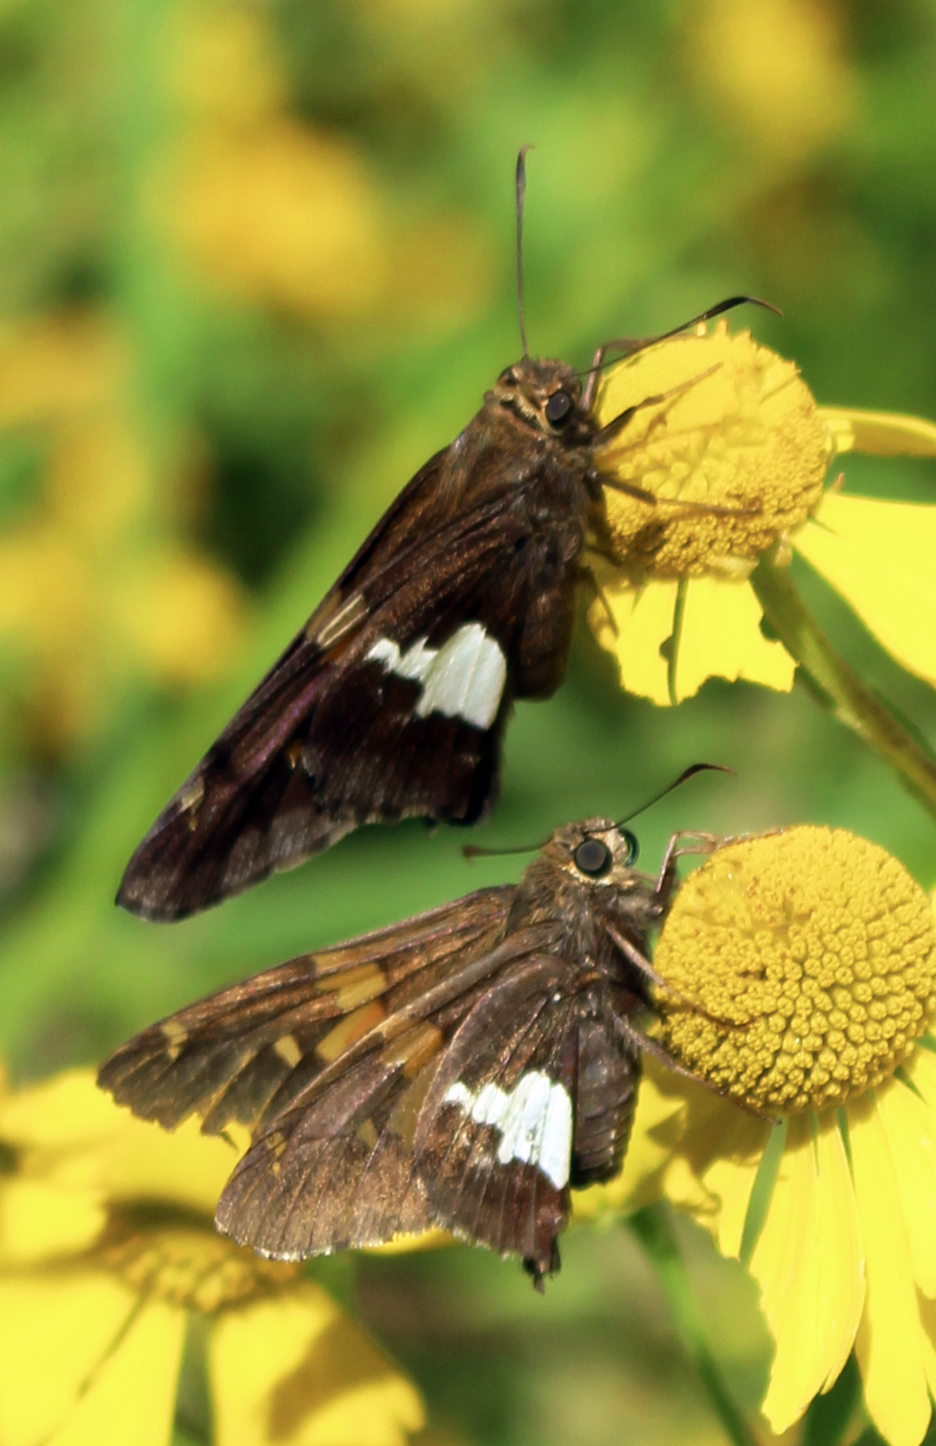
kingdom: Animalia
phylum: Arthropoda
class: Insecta
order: Lepidoptera
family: Hesperiidae
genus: Epargyreus
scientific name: Epargyreus clarus
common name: Silver-spotted skipper
